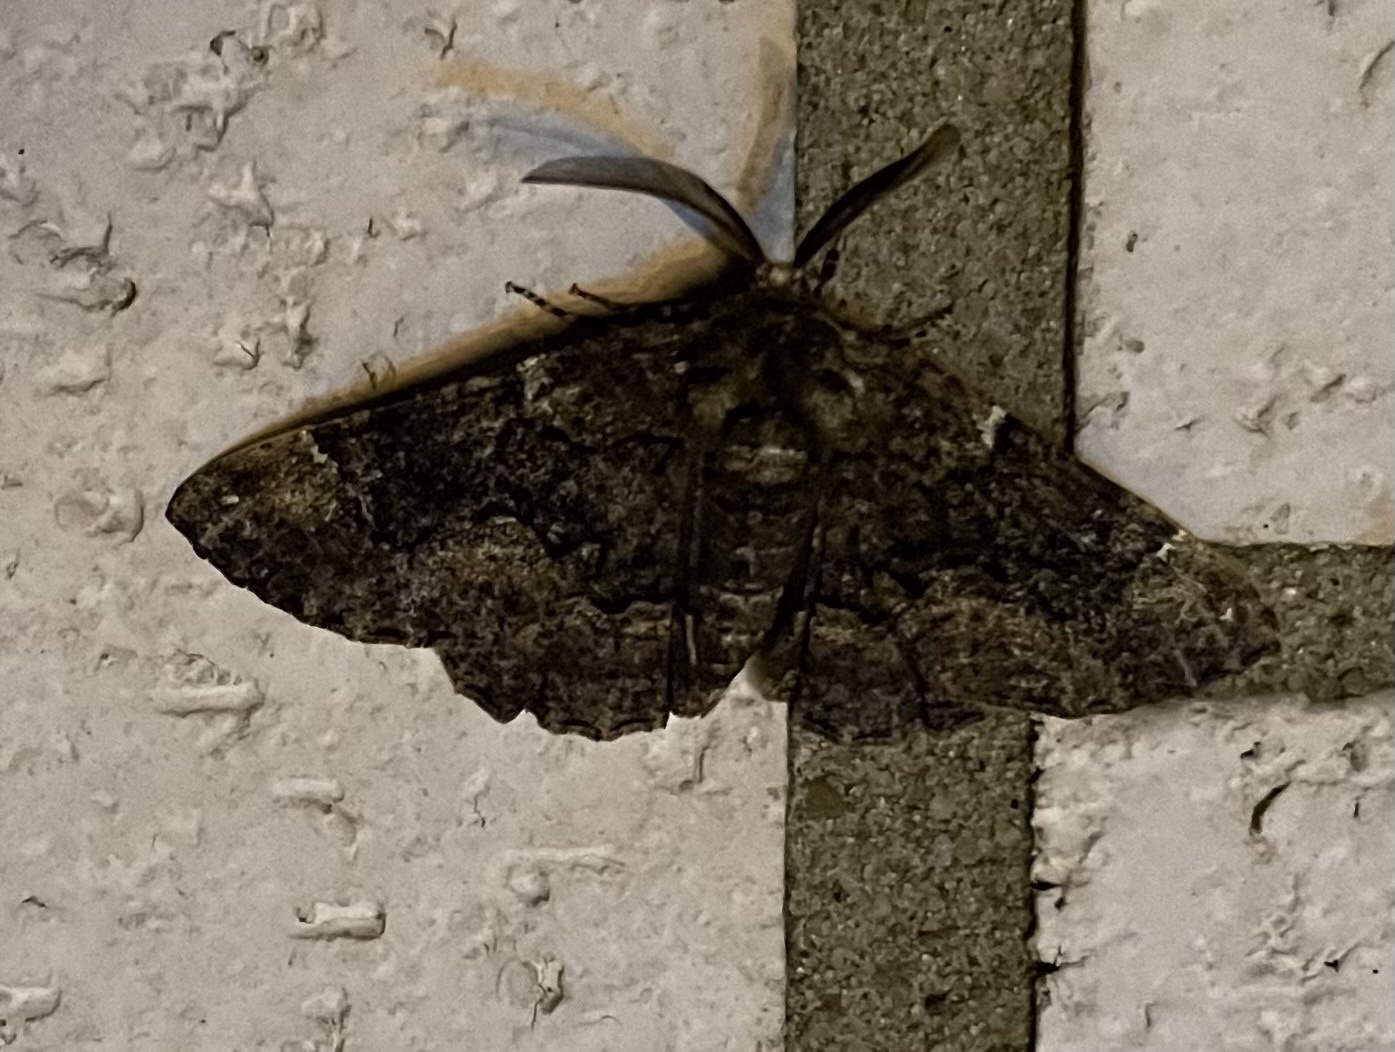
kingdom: Animalia
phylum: Arthropoda
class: Insecta
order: Lepidoptera
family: Geometridae
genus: Phaeoura
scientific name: Phaeoura quernaria
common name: Oak beauty
